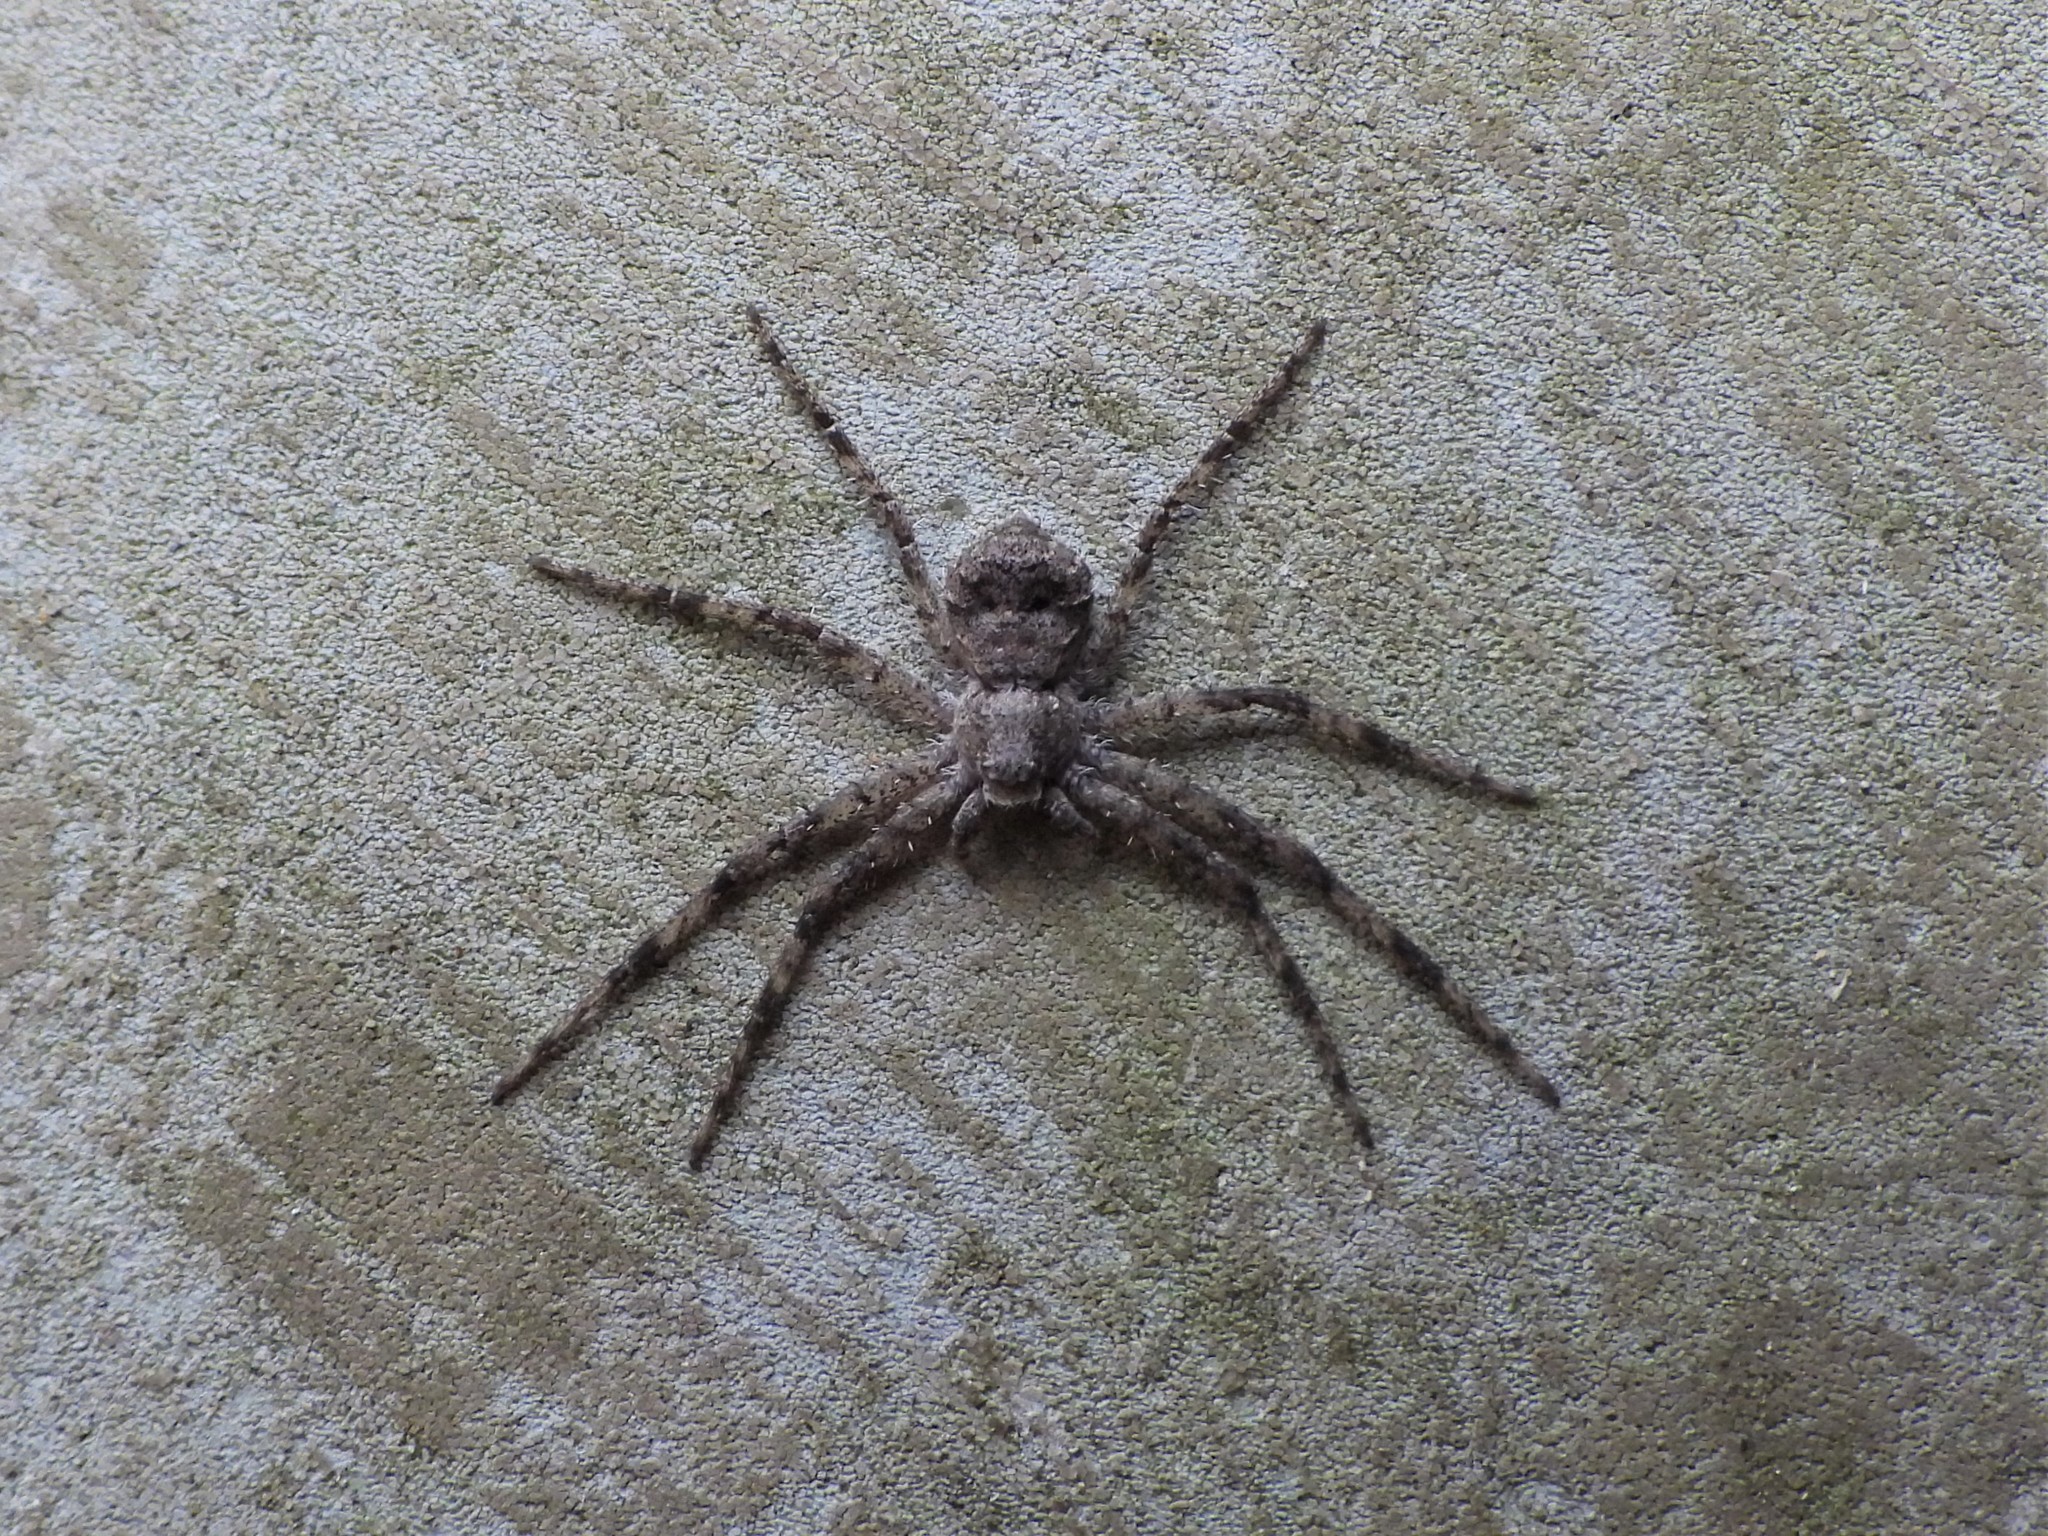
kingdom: Animalia
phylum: Arthropoda
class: Arachnida
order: Araneae
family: Philodromidae
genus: Philodromus
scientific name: Philodromus margaritatus
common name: Lichen running-spider
